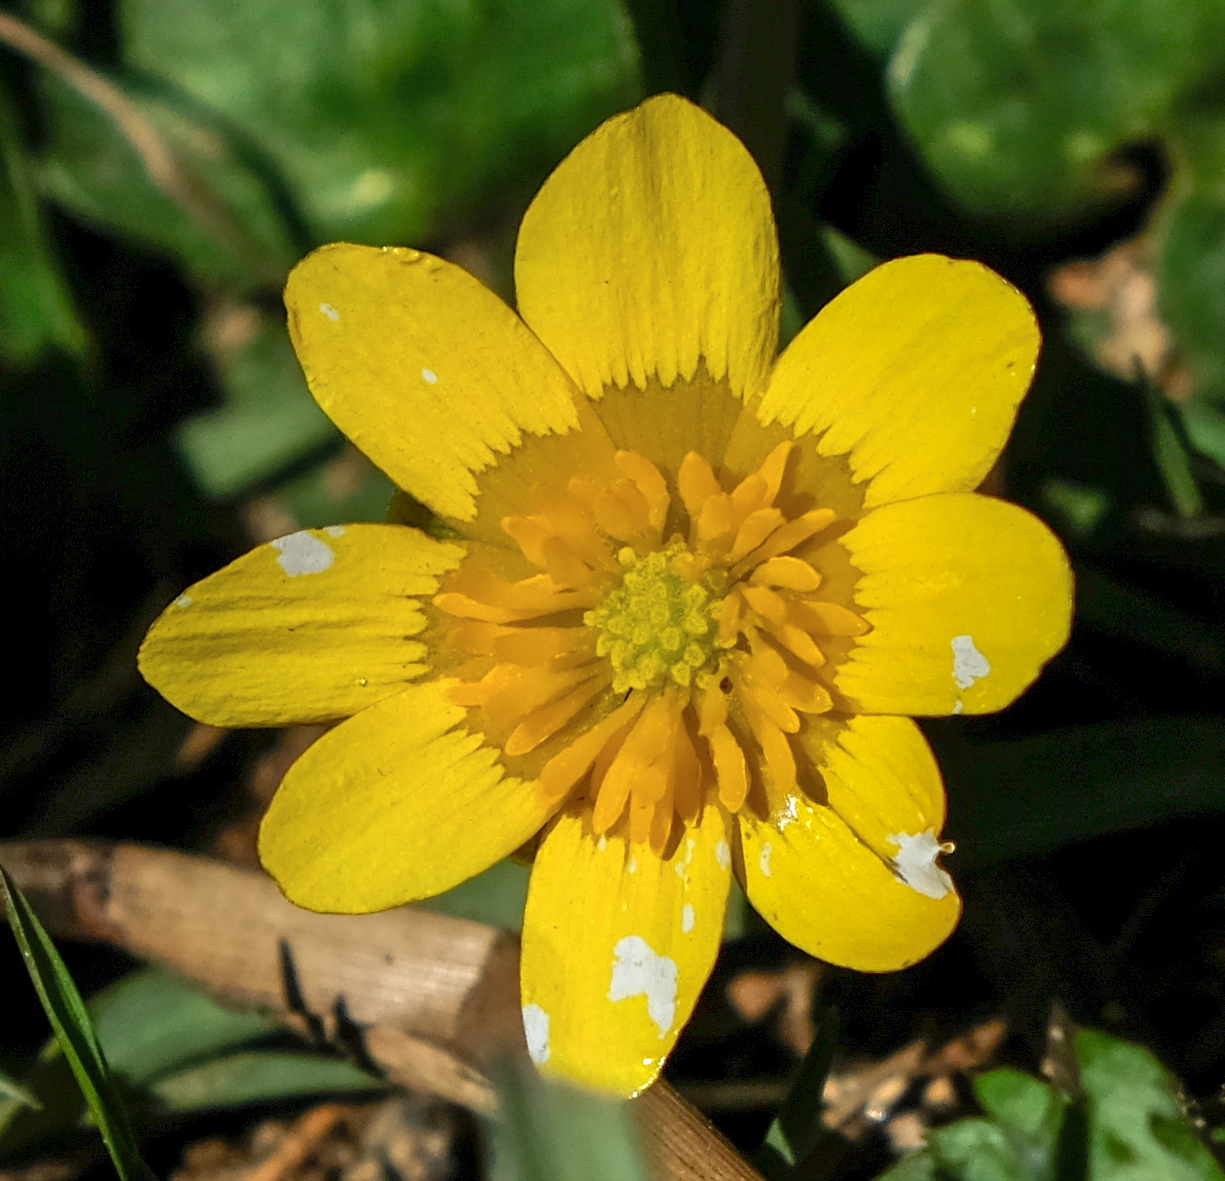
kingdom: Plantae
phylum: Tracheophyta
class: Magnoliopsida
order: Ranunculales
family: Ranunculaceae
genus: Ficaria
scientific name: Ficaria verna
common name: Lesser celandine
